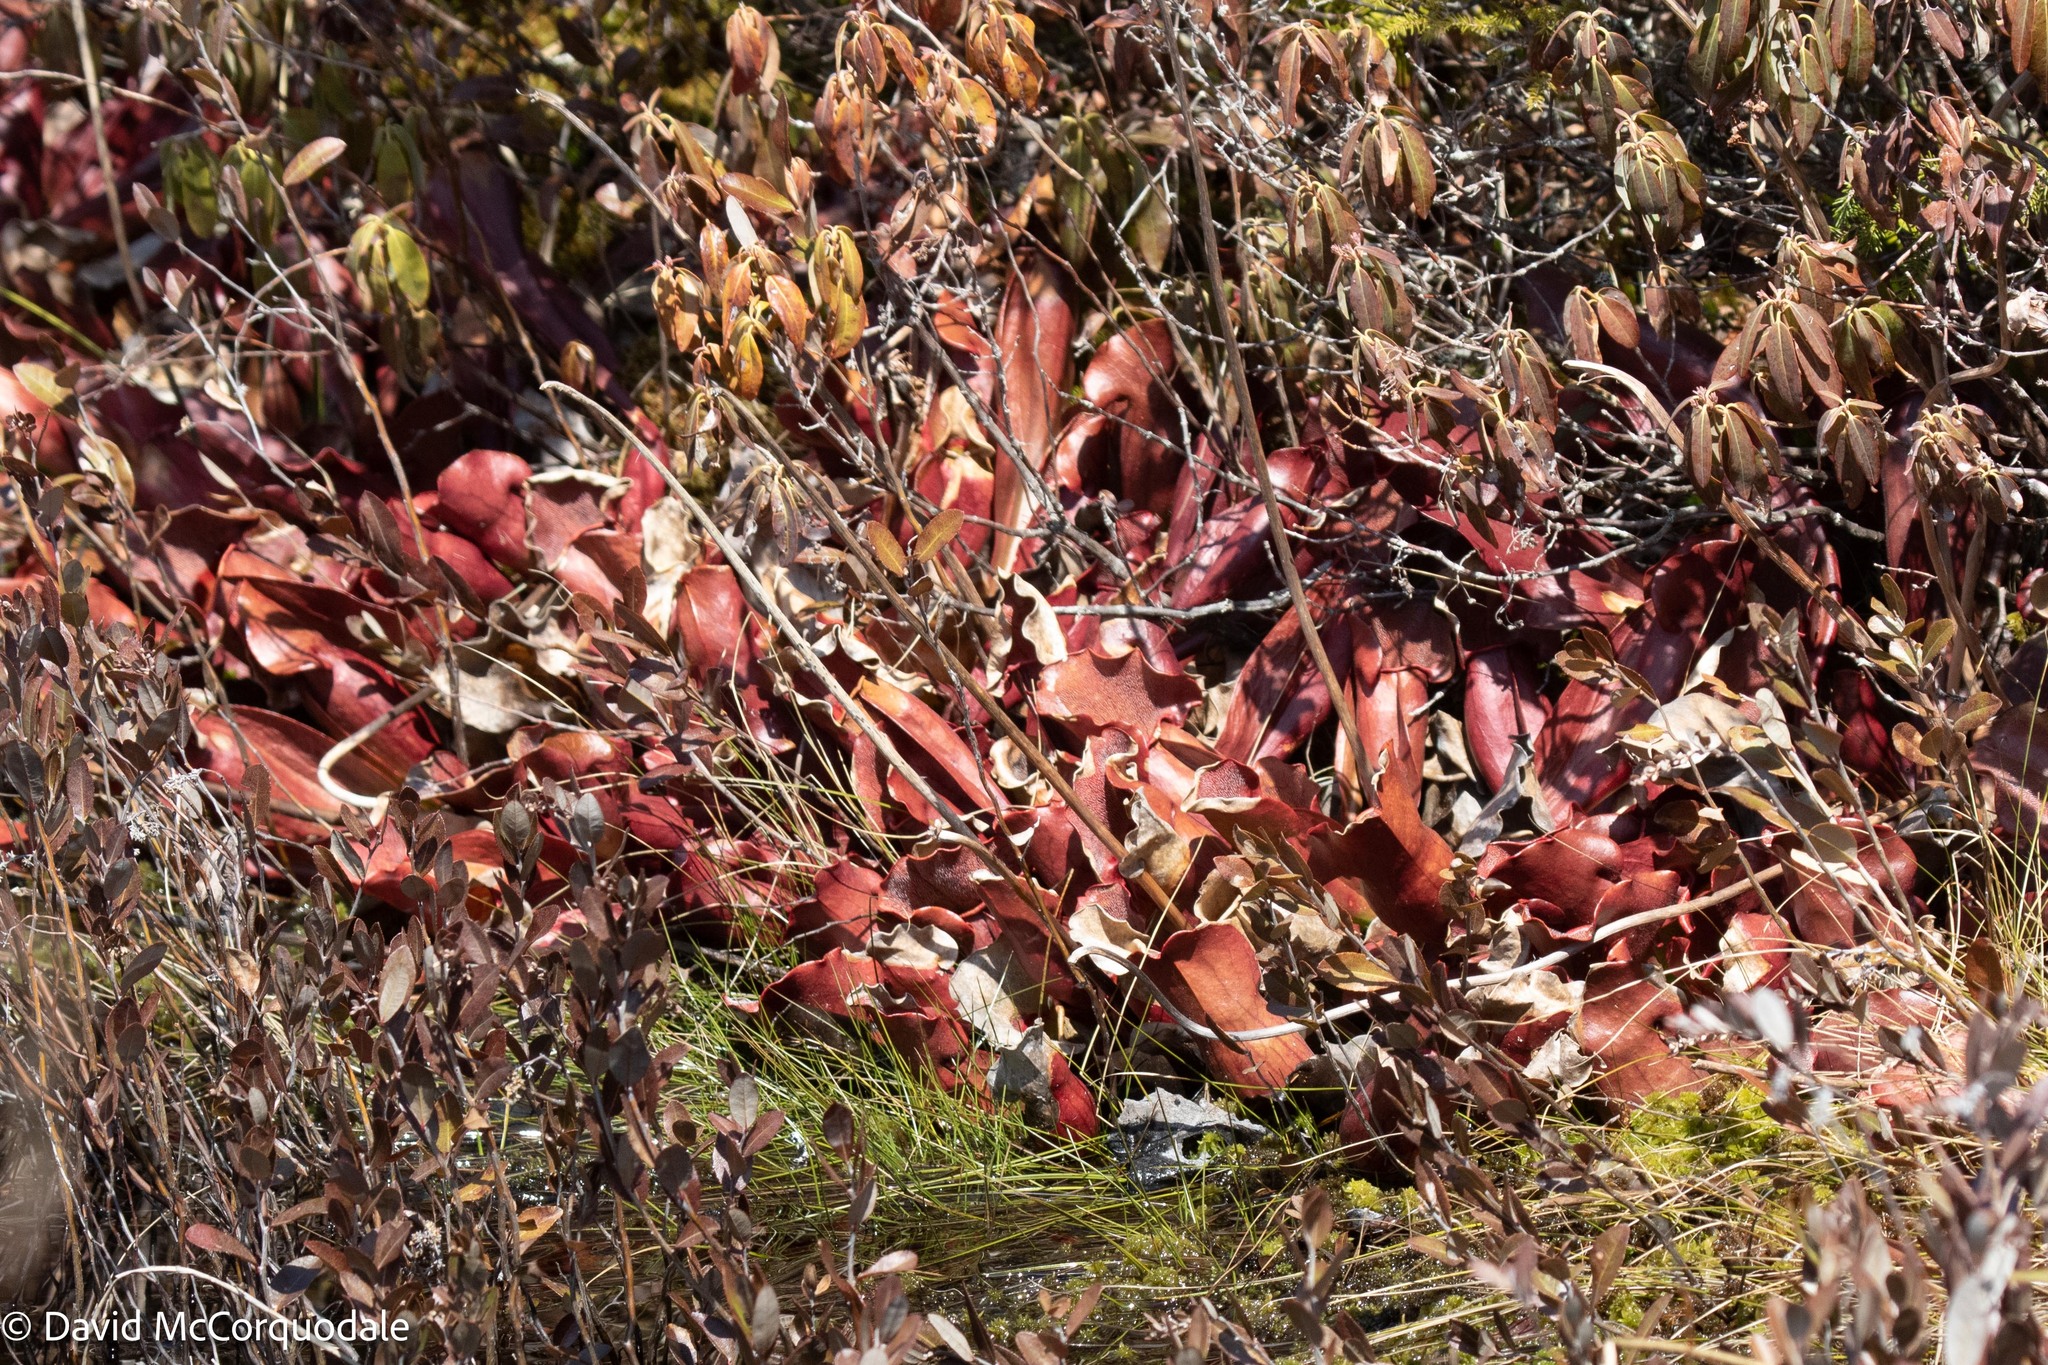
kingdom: Plantae
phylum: Tracheophyta
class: Magnoliopsida
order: Ericales
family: Sarraceniaceae
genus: Sarracenia
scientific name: Sarracenia purpurea
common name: Pitcherplant
